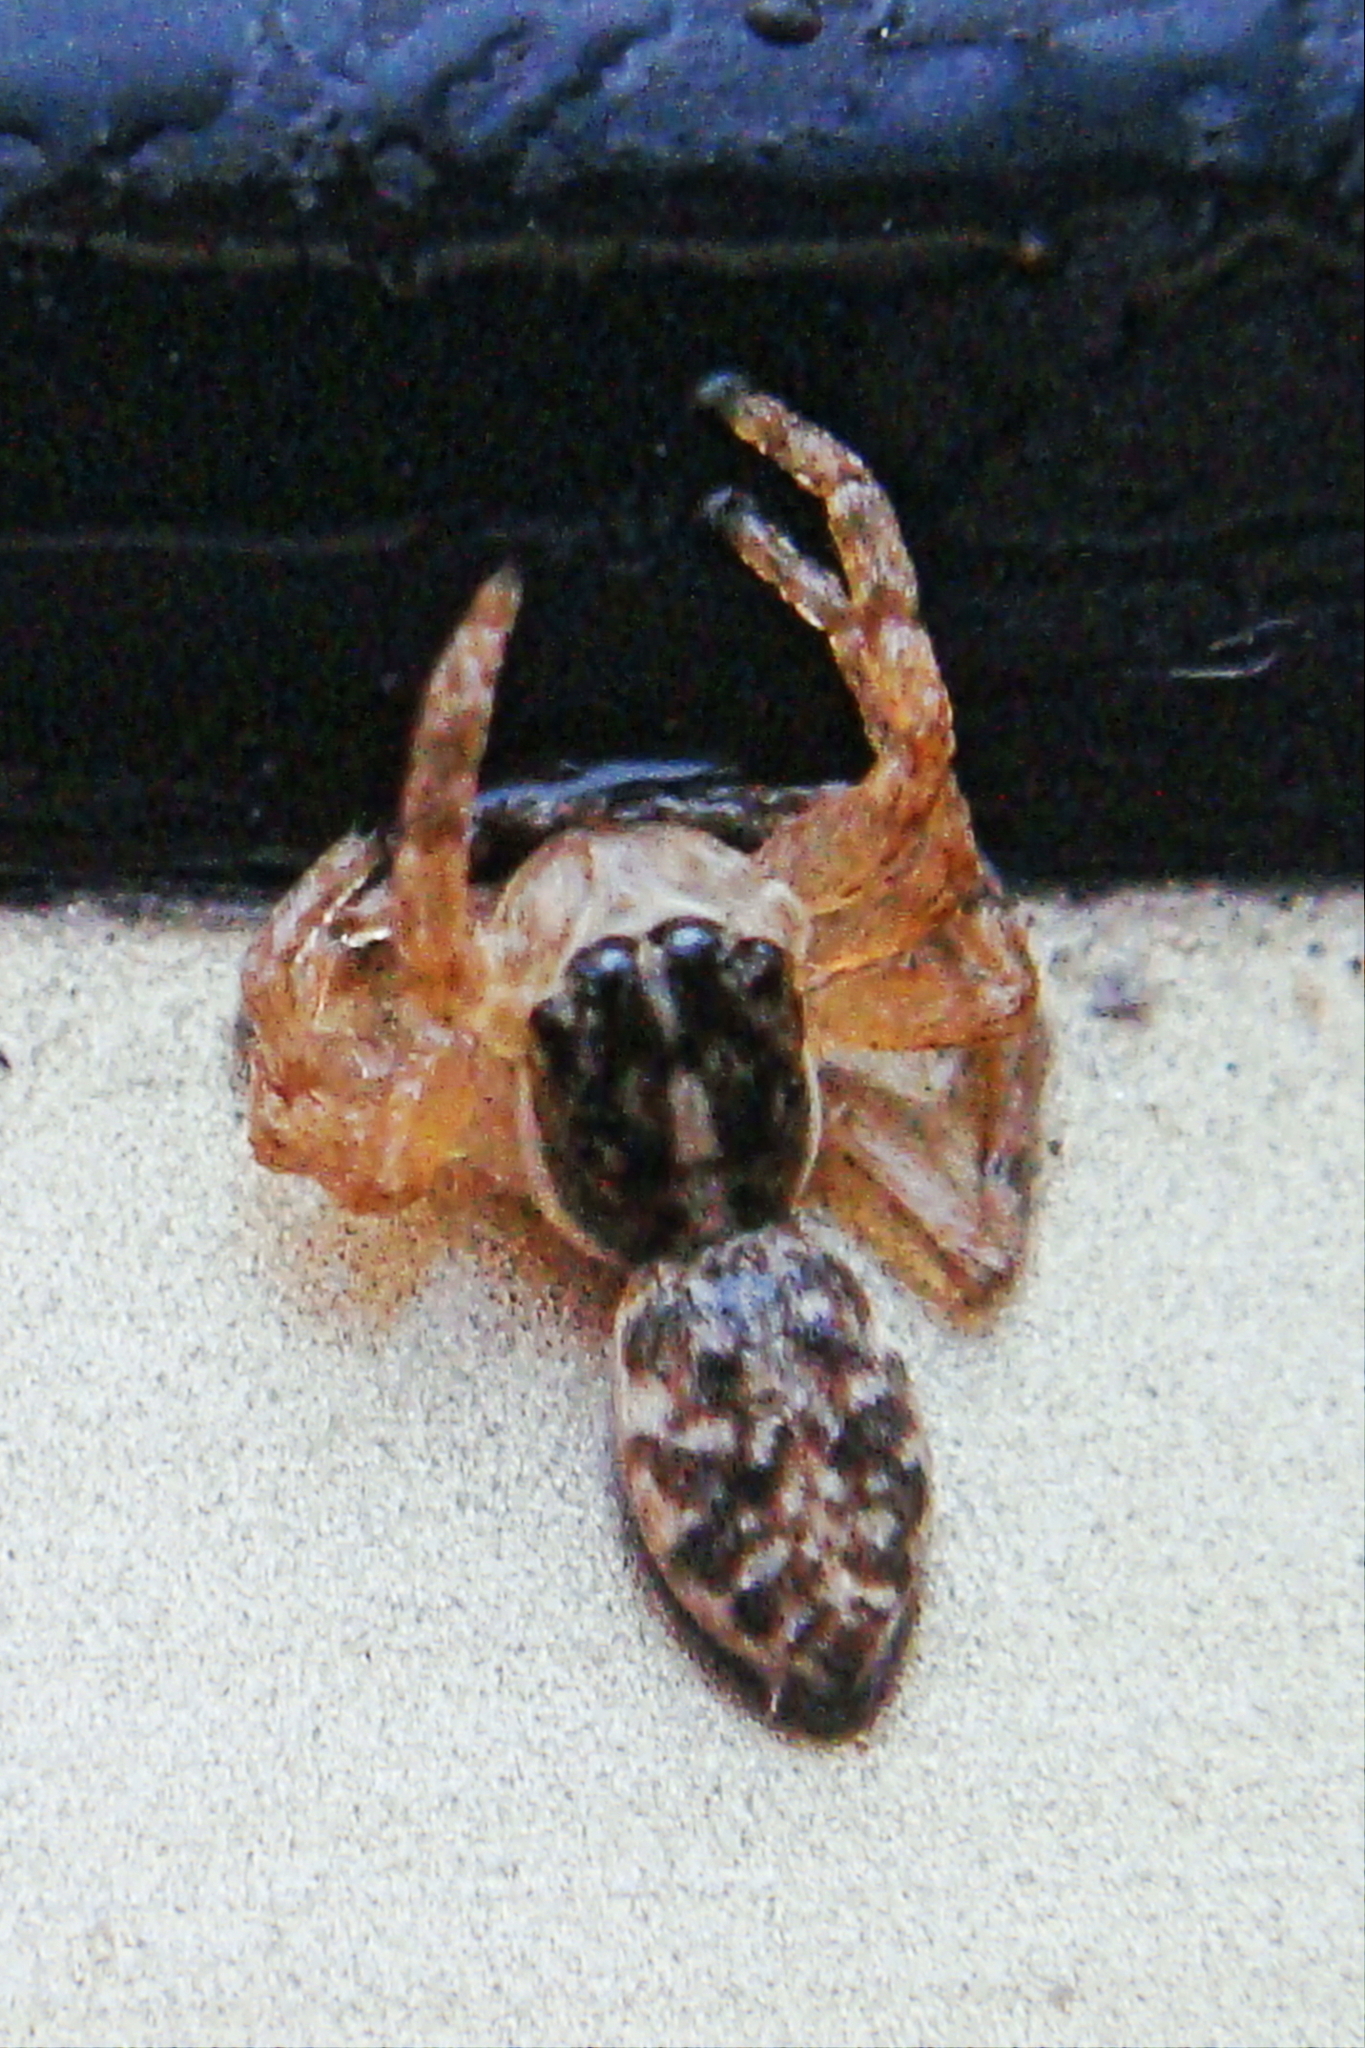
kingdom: Animalia
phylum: Arthropoda
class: Arachnida
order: Araneae
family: Salticidae
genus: Menemerus
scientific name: Menemerus semilimbatus
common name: Jumping spider
